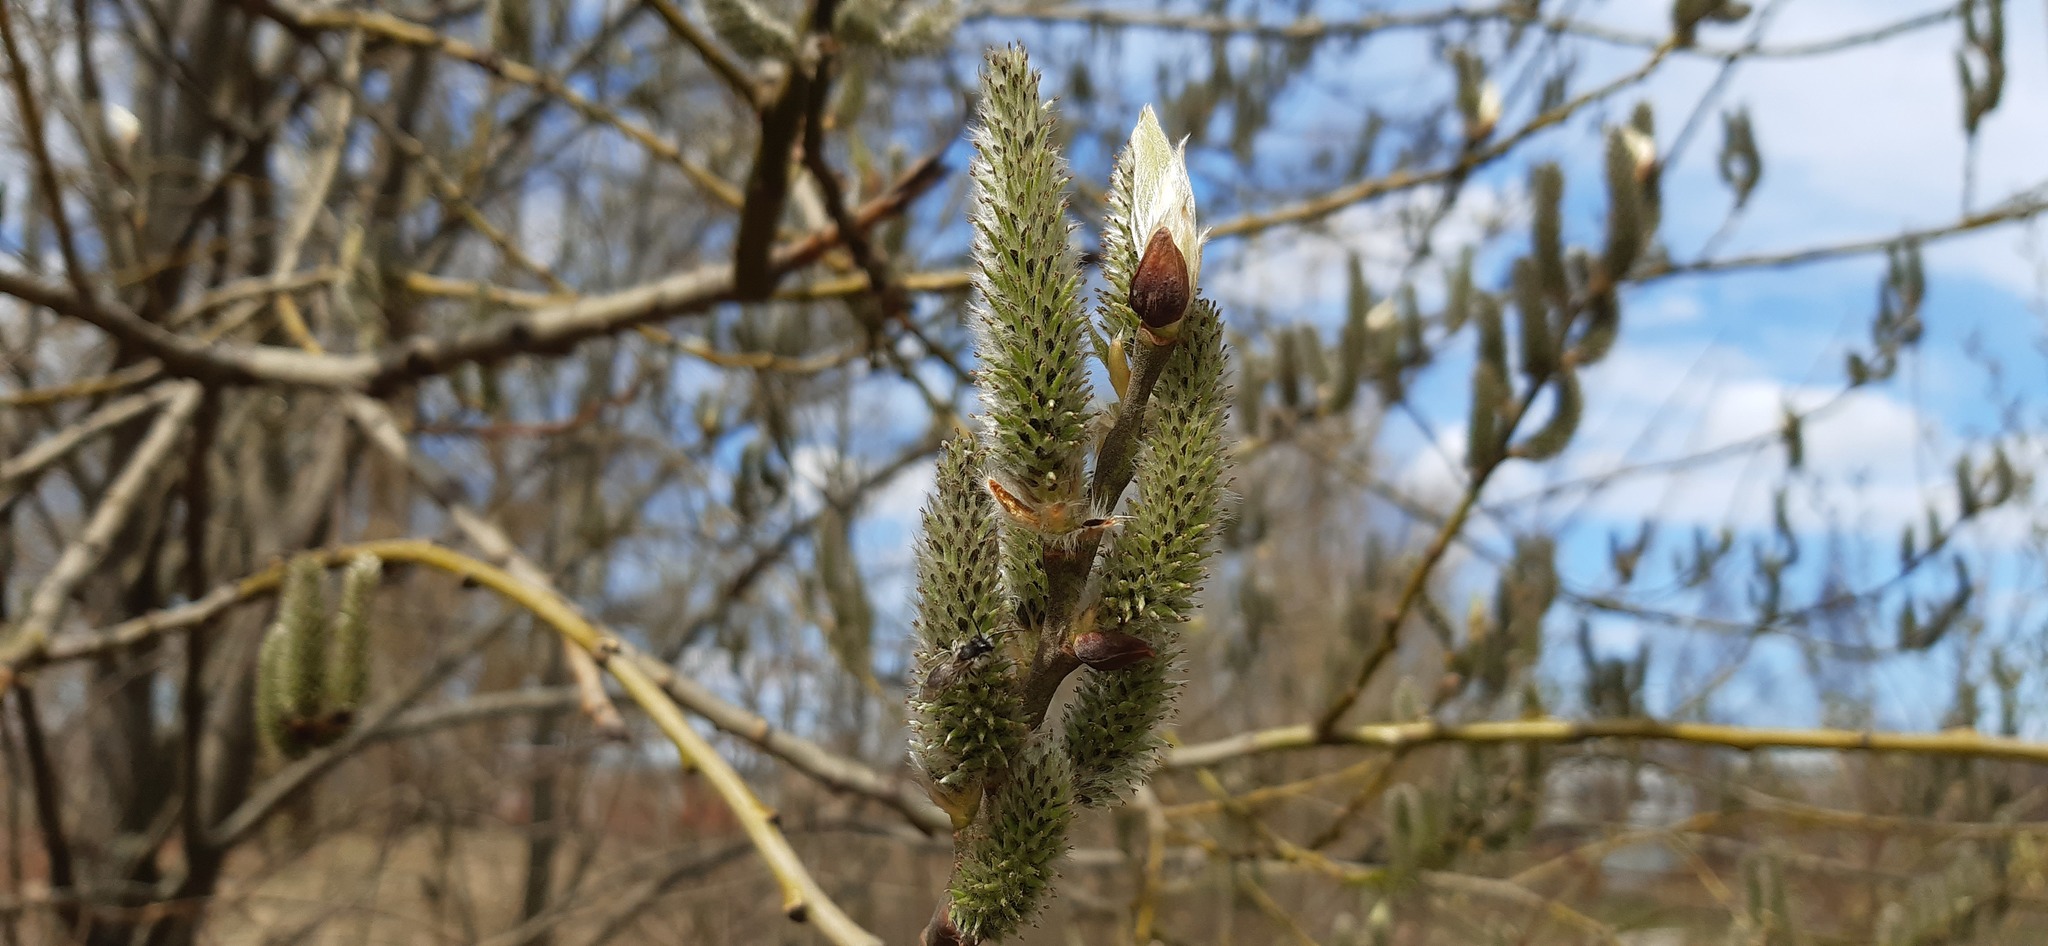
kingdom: Plantae
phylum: Tracheophyta
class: Magnoliopsida
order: Malpighiales
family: Salicaceae
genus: Salix
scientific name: Salix caprea
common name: Goat willow
